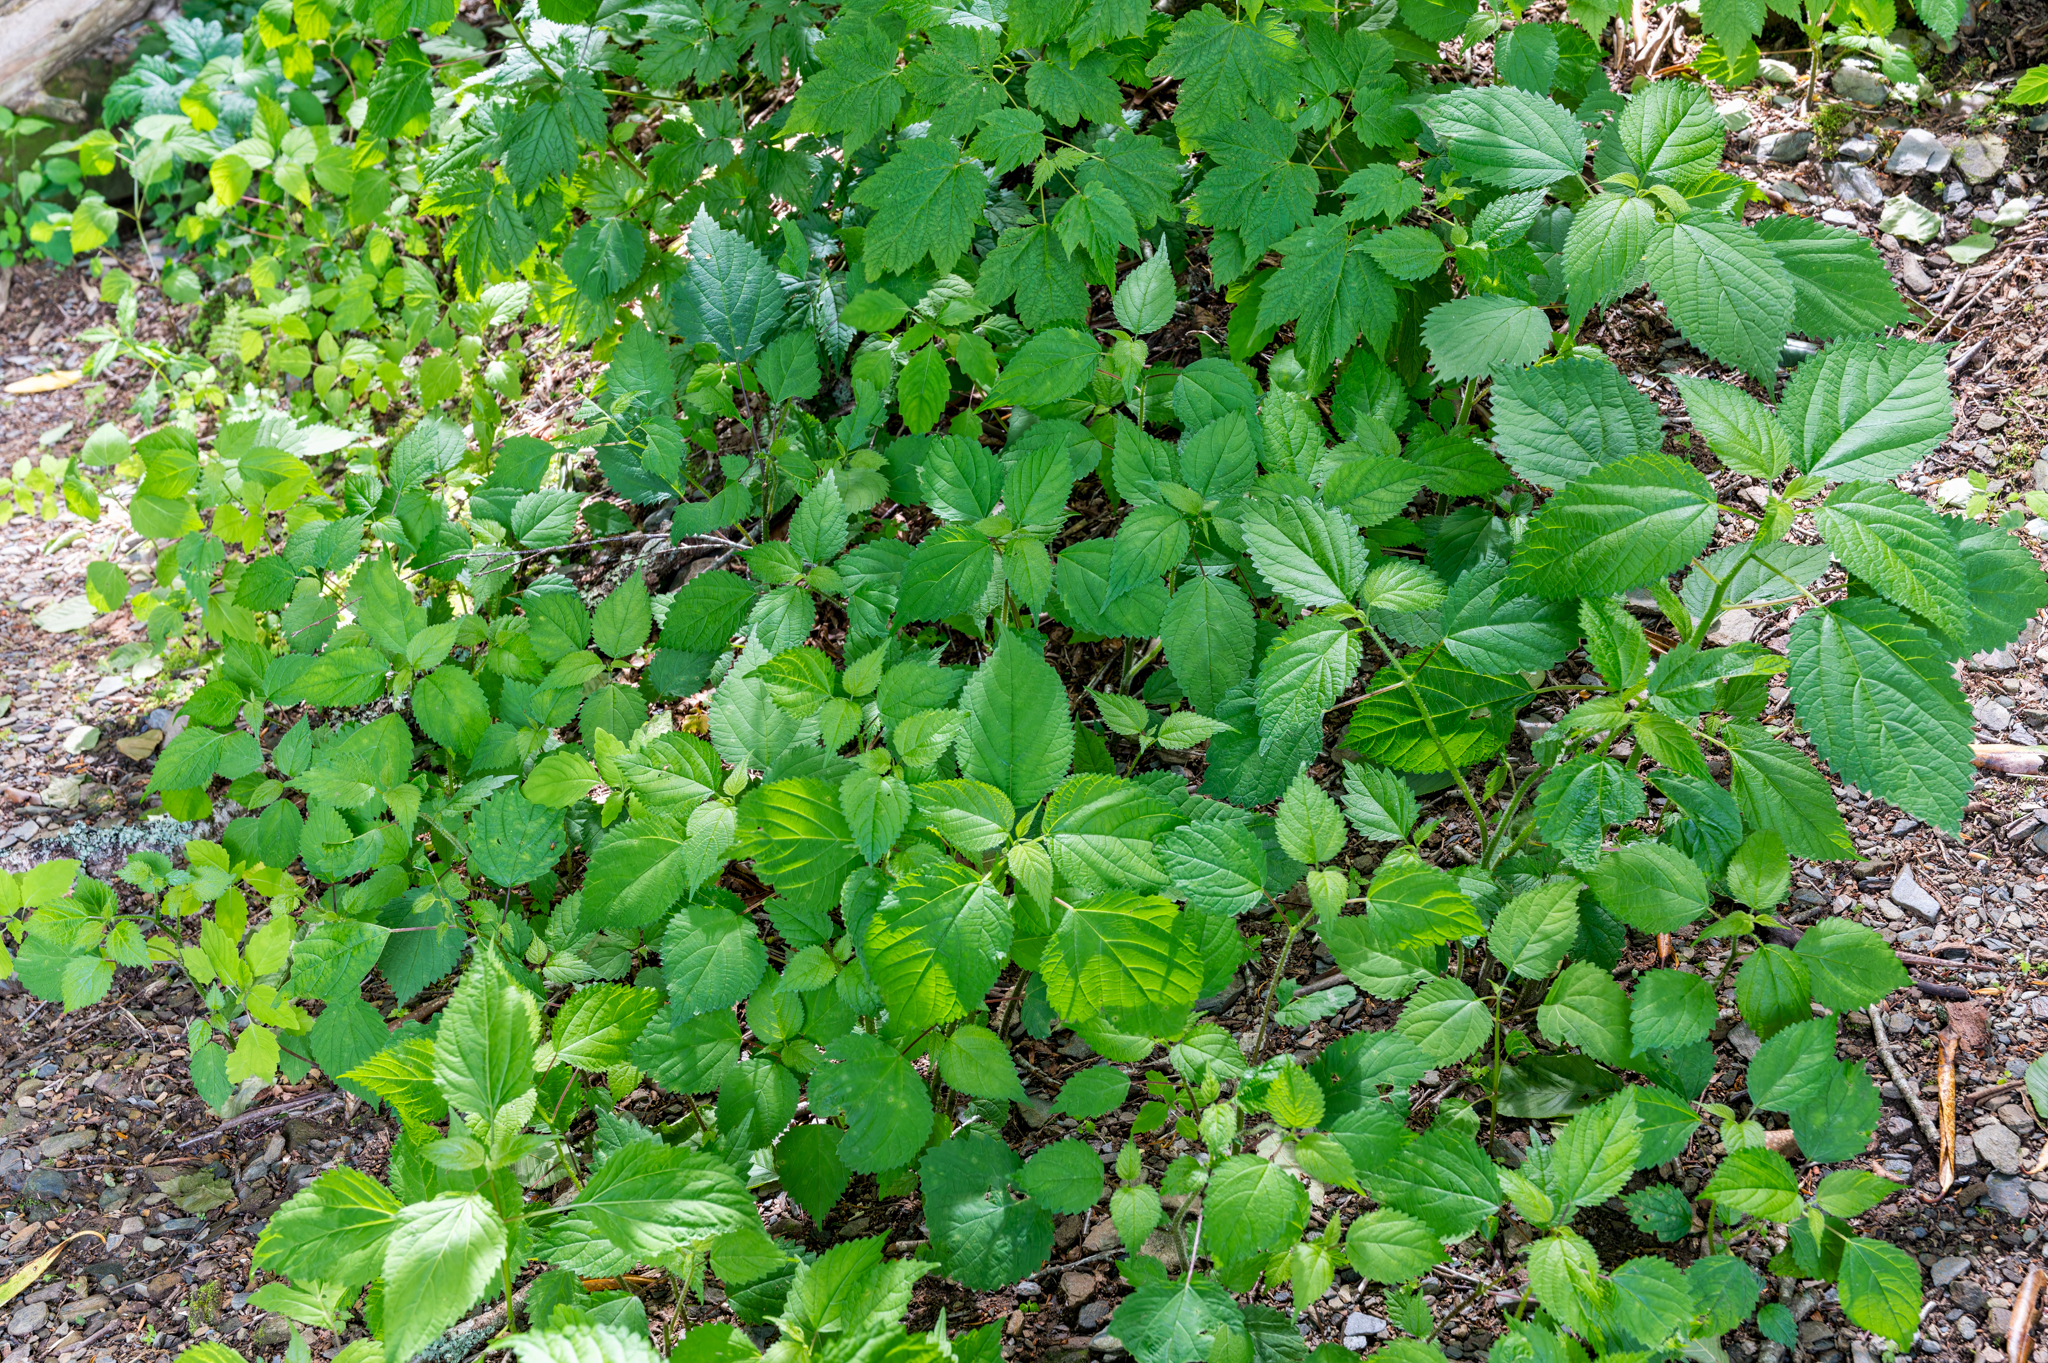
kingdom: Plantae
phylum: Tracheophyta
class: Magnoliopsida
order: Rosales
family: Urticaceae
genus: Laportea
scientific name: Laportea canadensis
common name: Canada nettle
